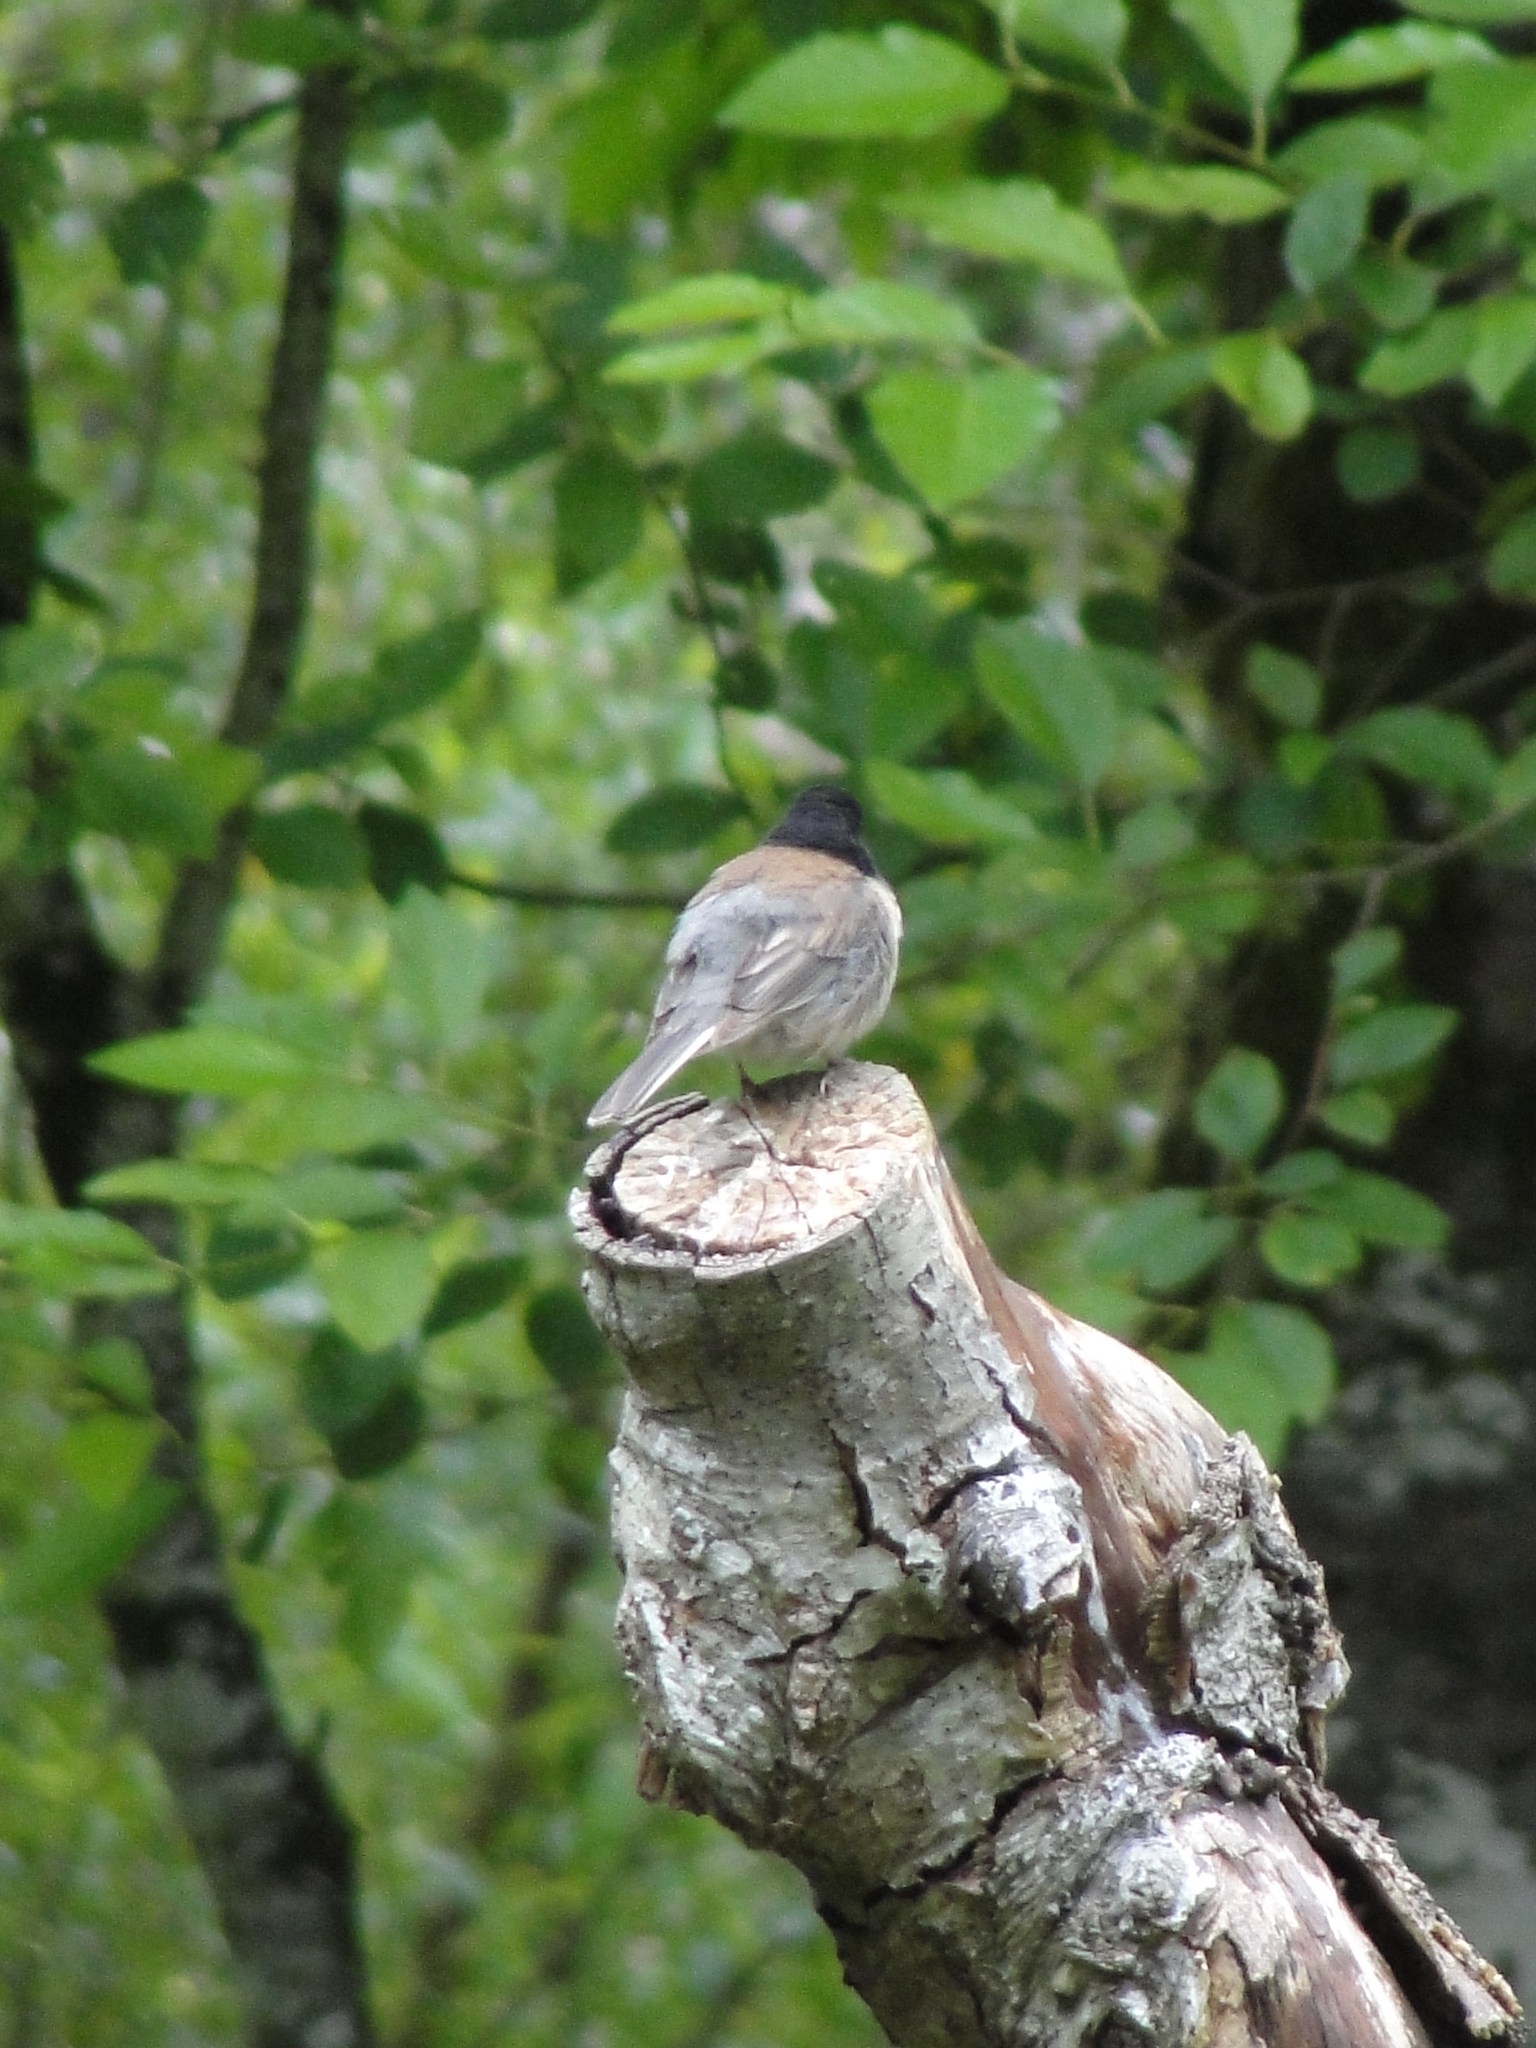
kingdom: Animalia
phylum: Chordata
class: Aves
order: Passeriformes
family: Passerellidae
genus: Junco
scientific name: Junco hyemalis
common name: Dark-eyed junco
